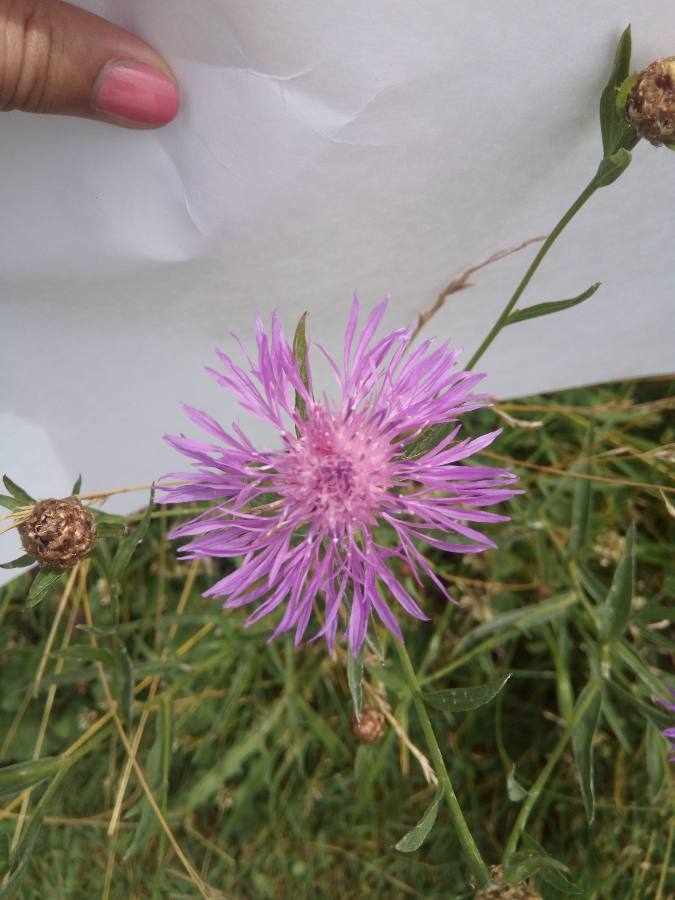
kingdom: Plantae
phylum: Tracheophyta
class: Magnoliopsida
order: Asterales
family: Asteraceae
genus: Centaurea
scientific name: Centaurea jacea
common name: Brown knapweed
